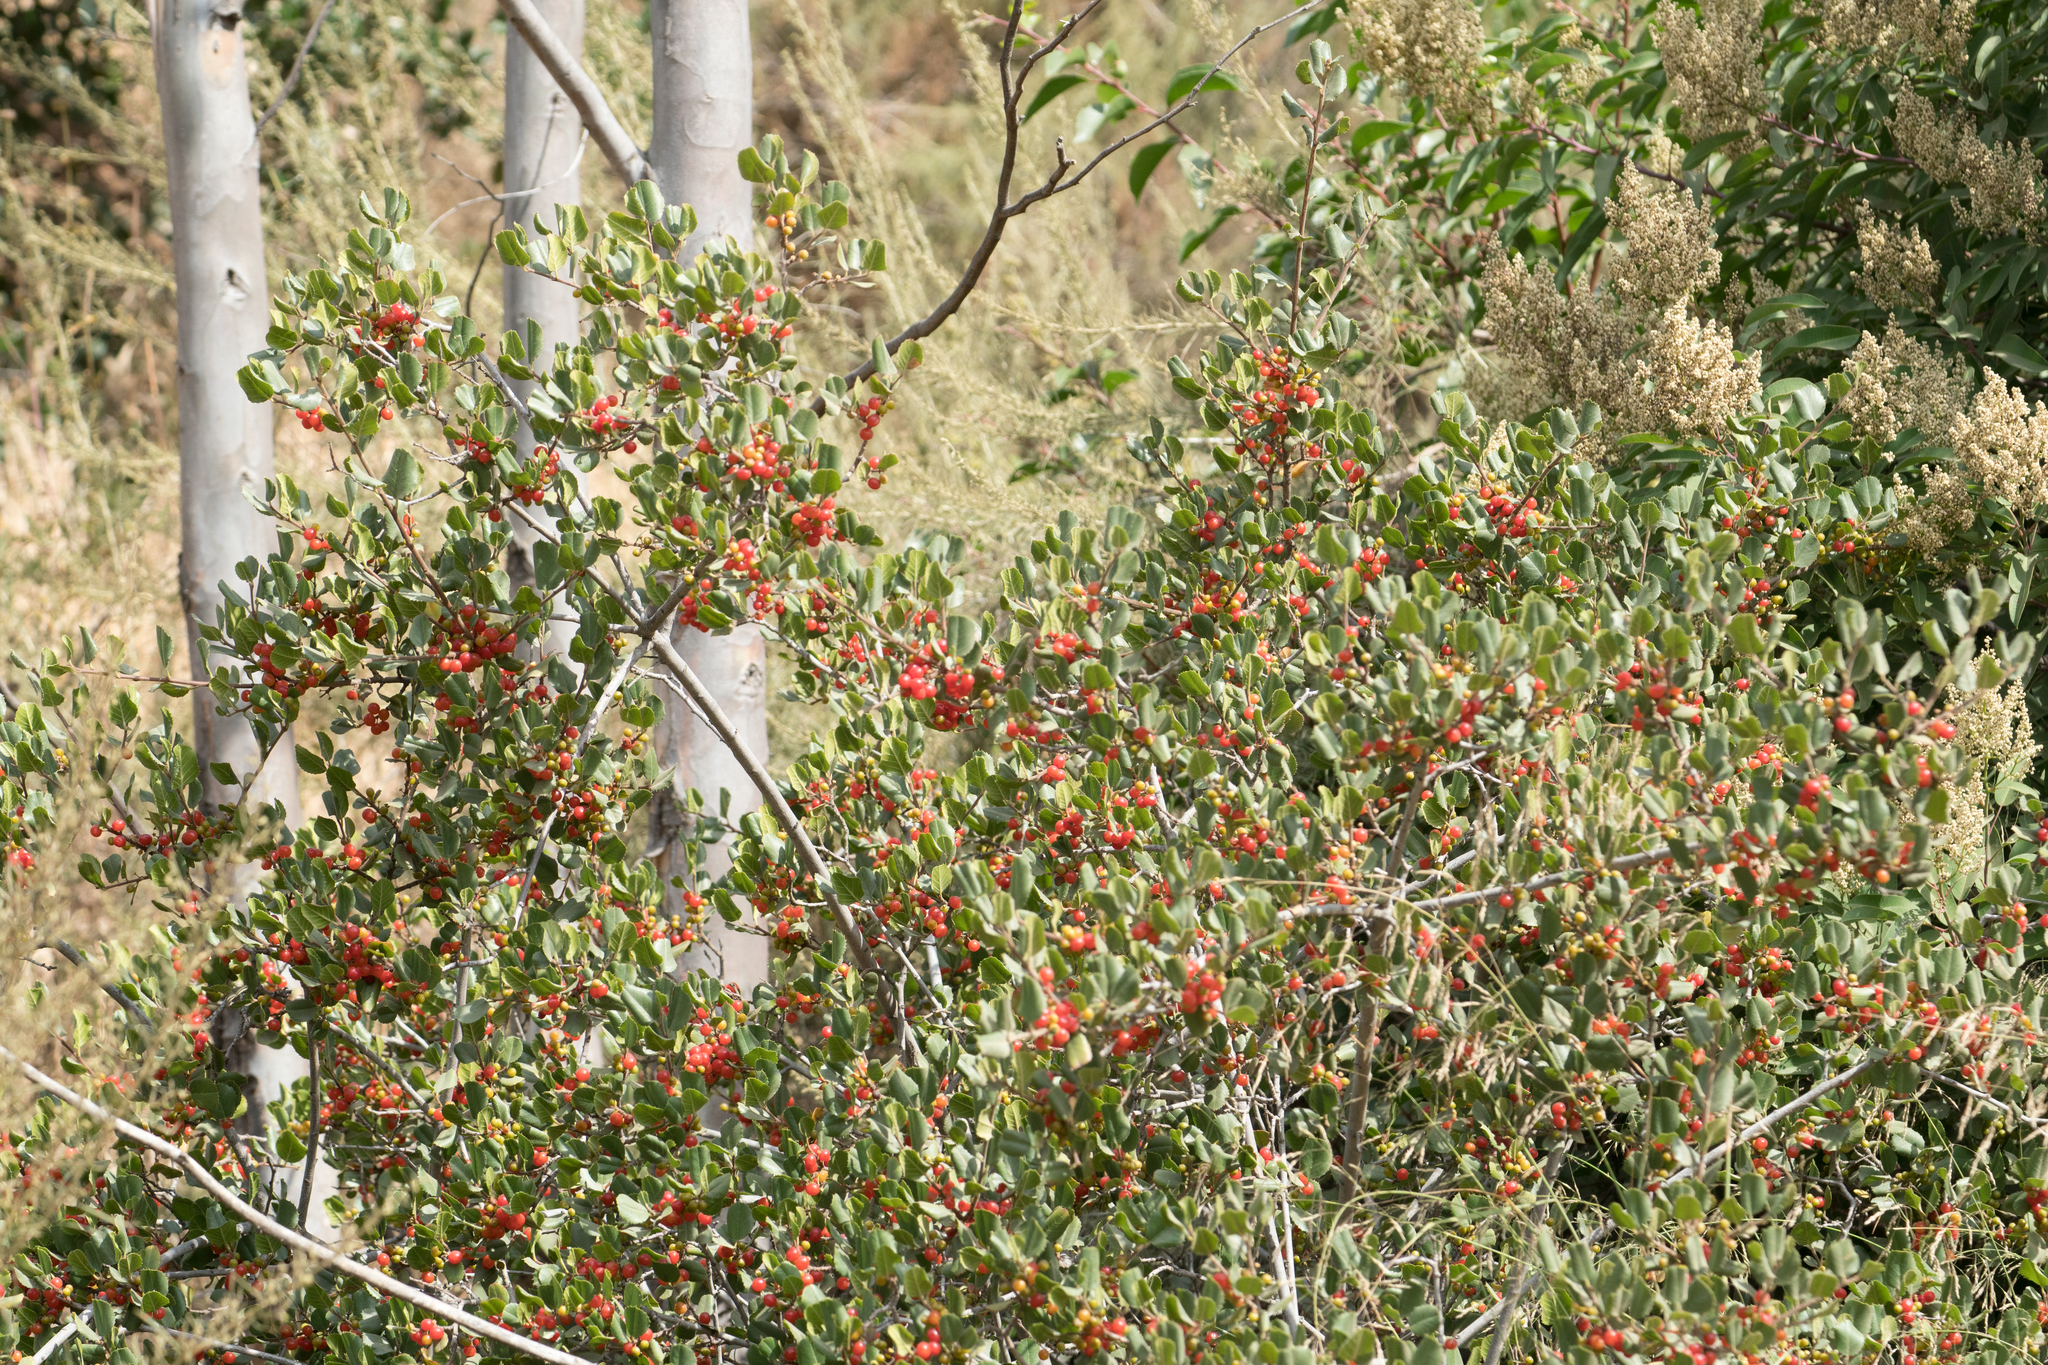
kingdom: Plantae
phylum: Tracheophyta
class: Magnoliopsida
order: Rosales
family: Rhamnaceae
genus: Endotropis
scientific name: Endotropis crocea
